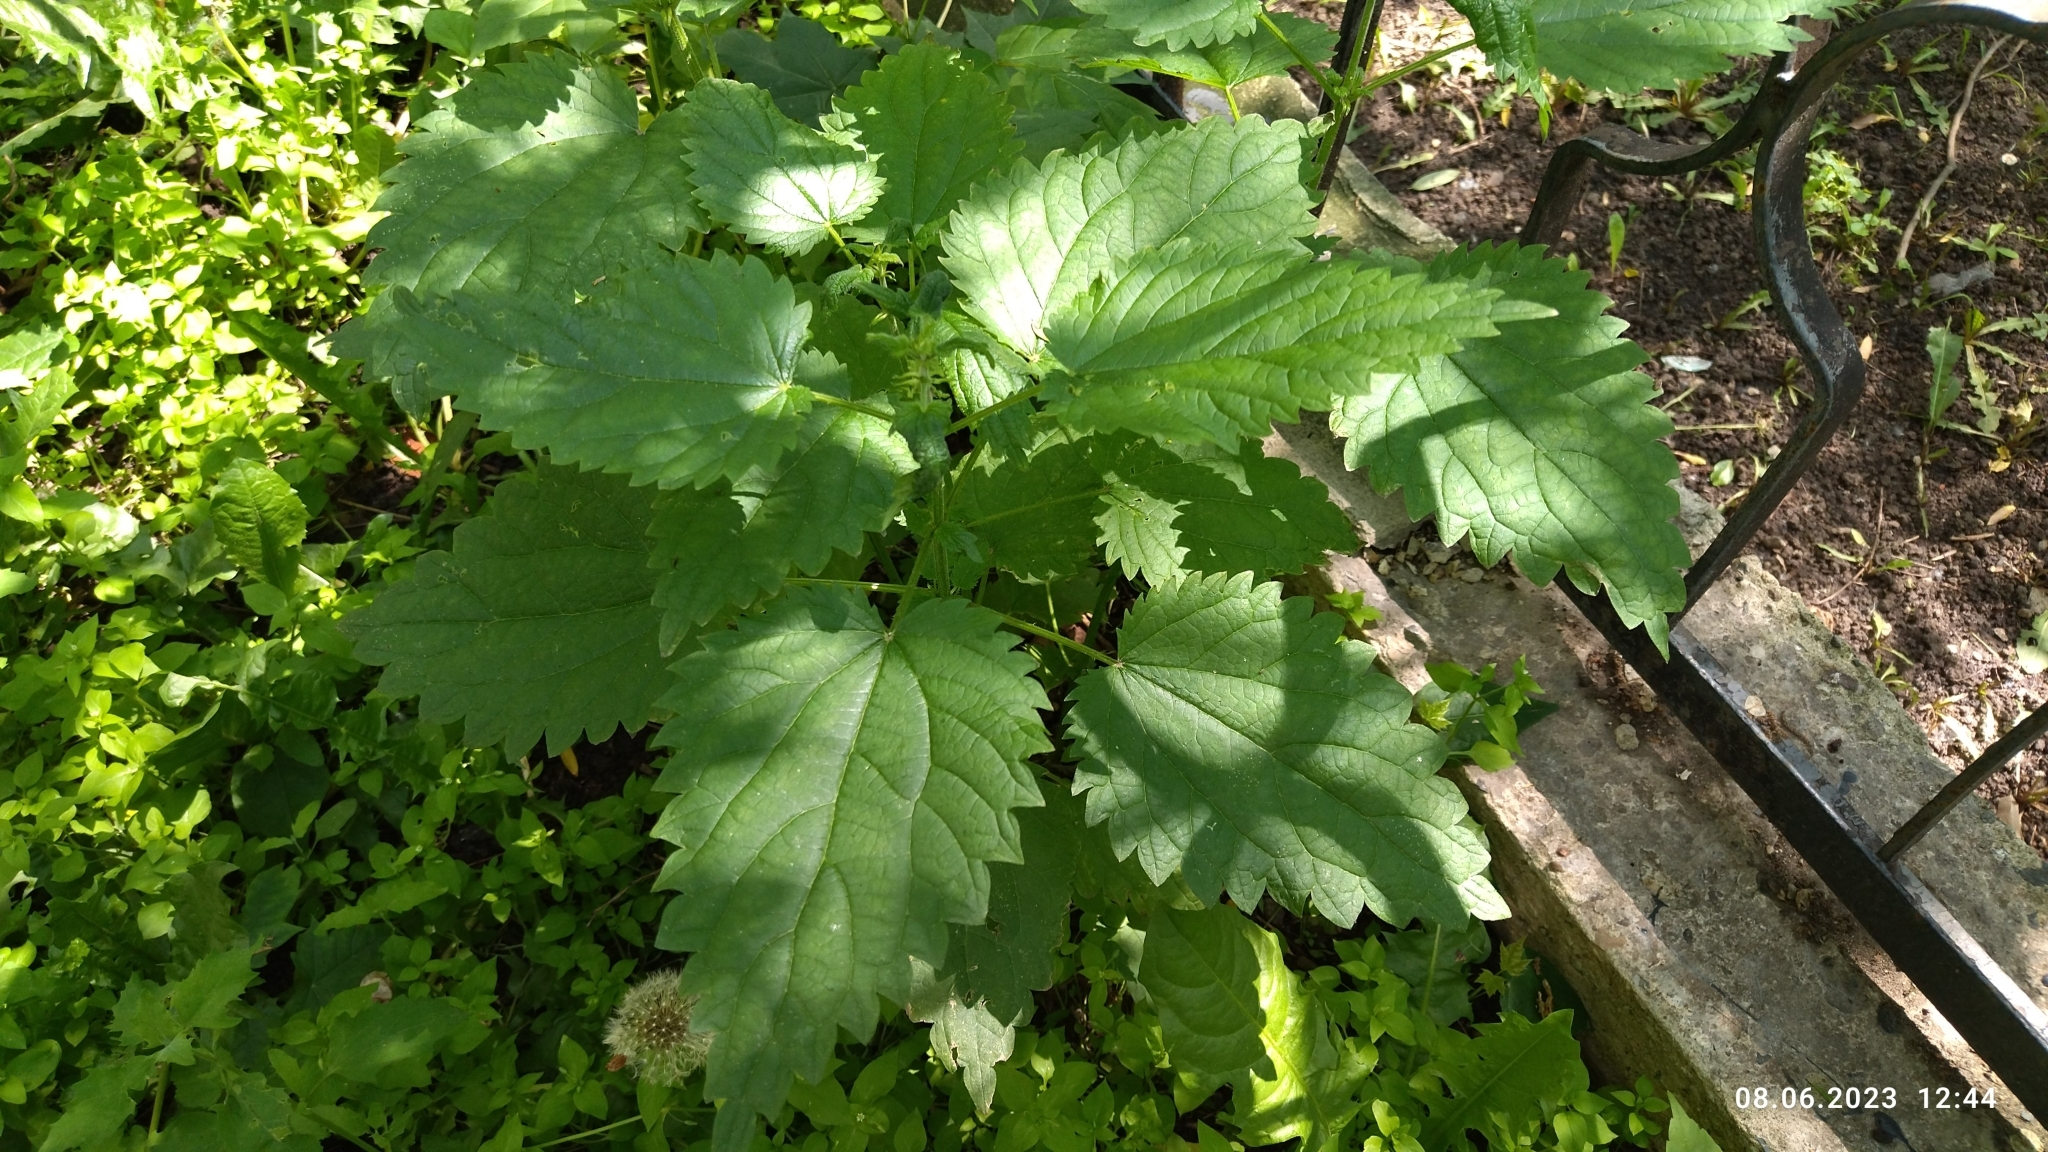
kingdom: Plantae
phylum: Tracheophyta
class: Magnoliopsida
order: Rosales
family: Urticaceae
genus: Urtica
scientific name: Urtica dioica
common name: Common nettle
